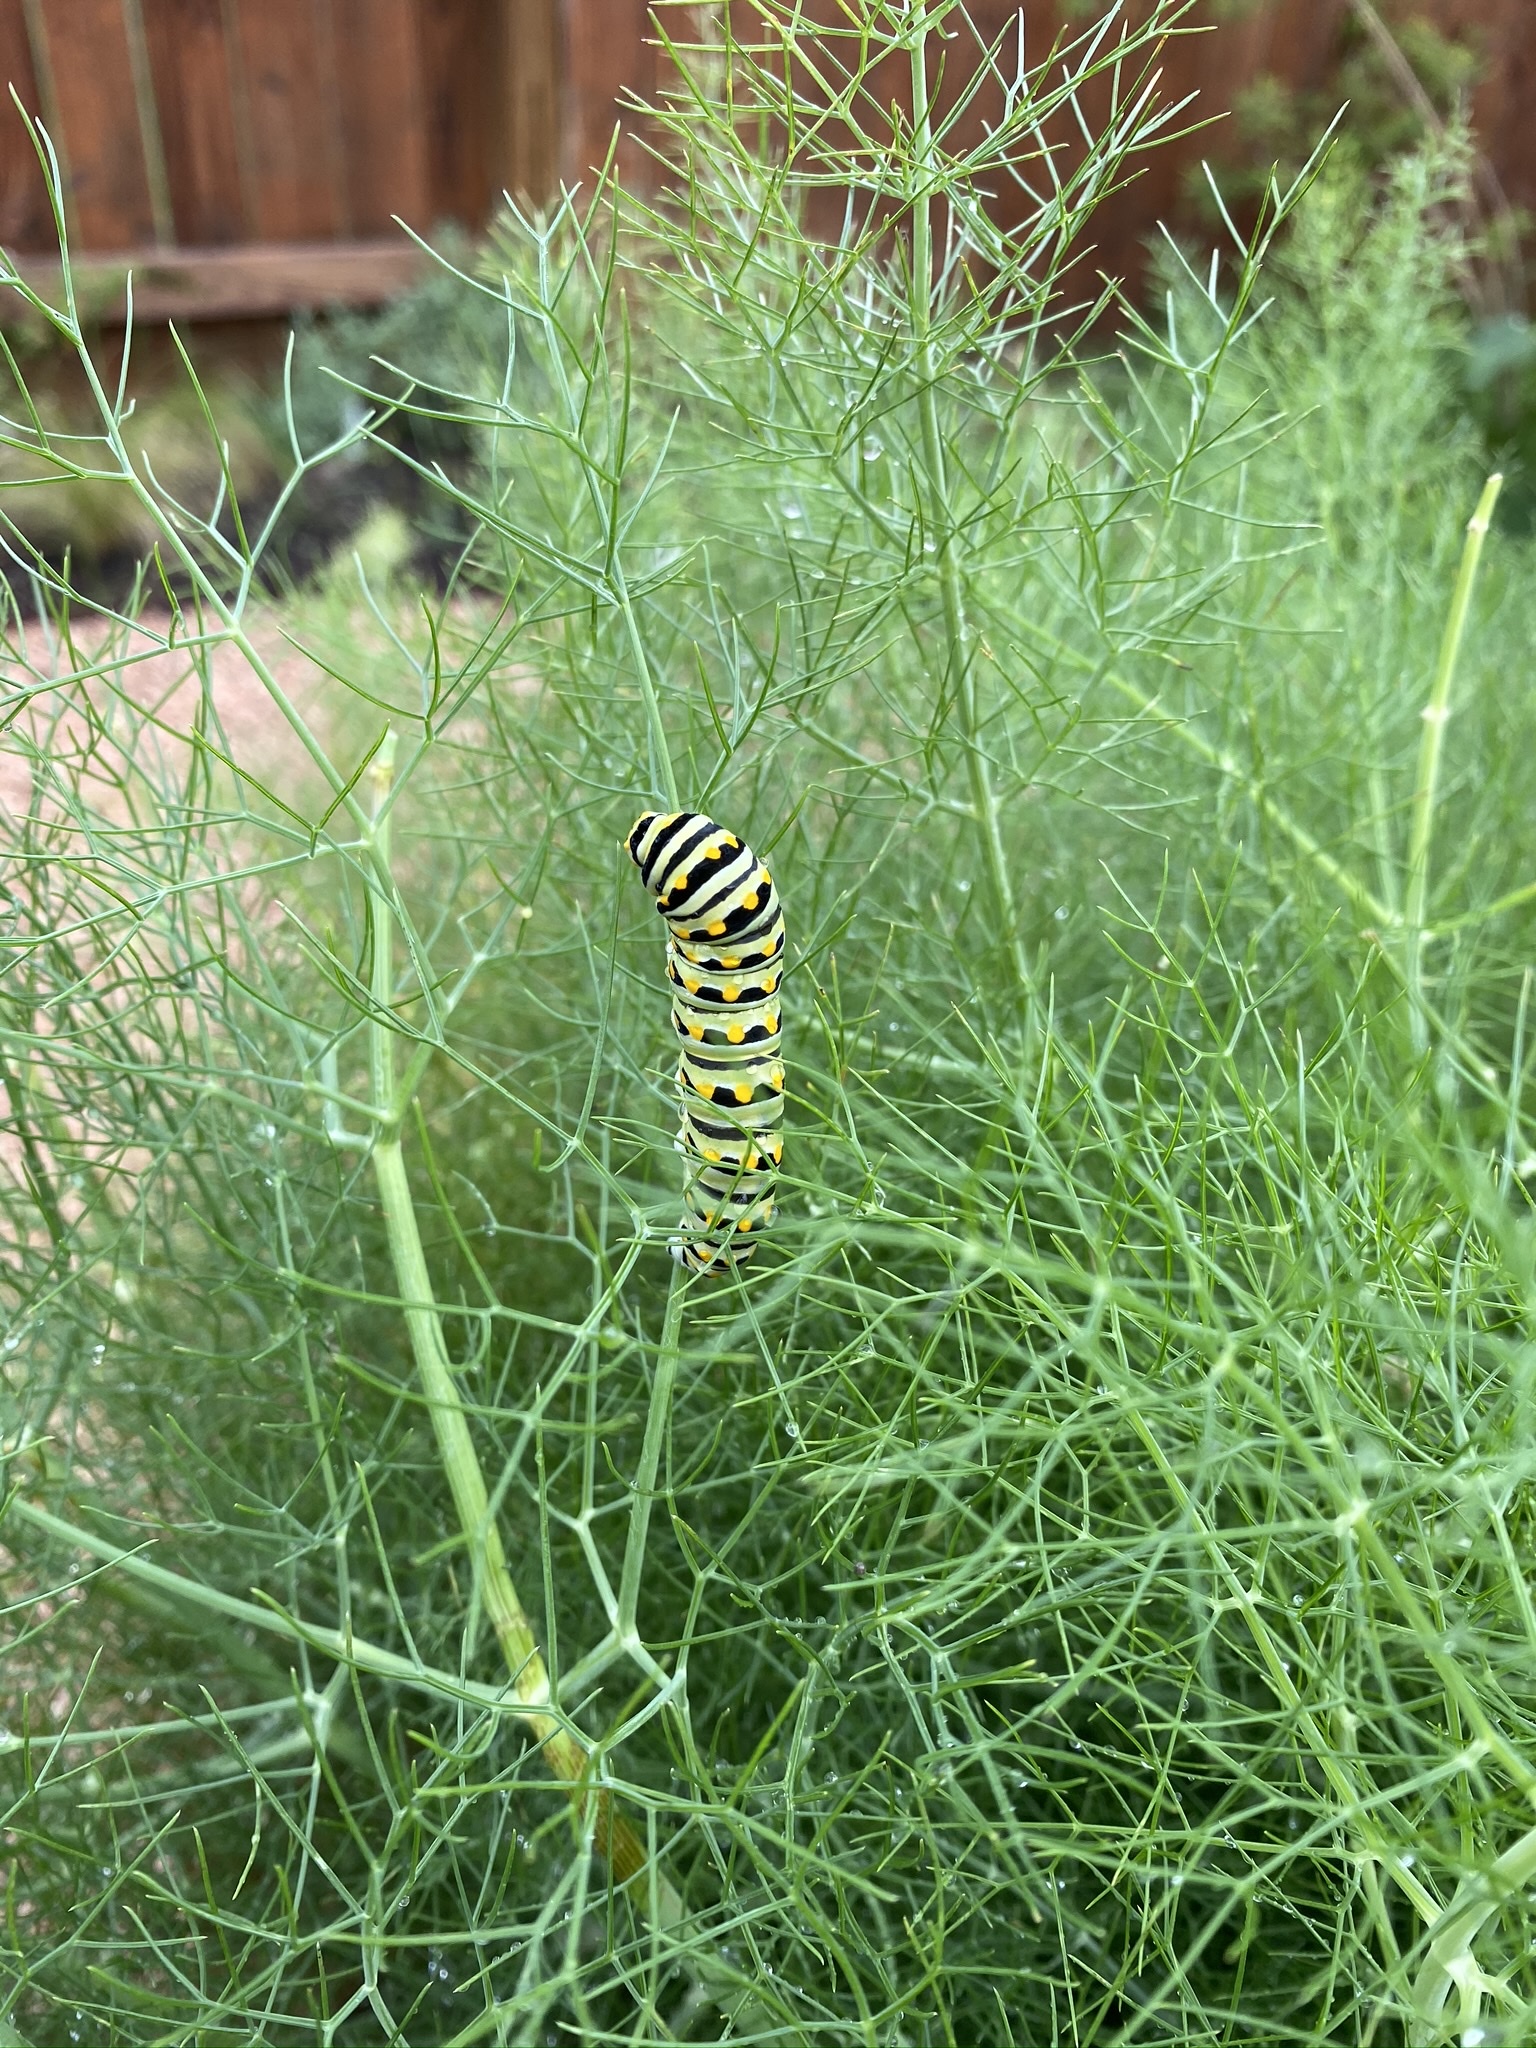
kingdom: Animalia
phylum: Arthropoda
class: Insecta
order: Lepidoptera
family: Papilionidae
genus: Papilio
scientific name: Papilio polyxenes
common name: Black swallowtail
